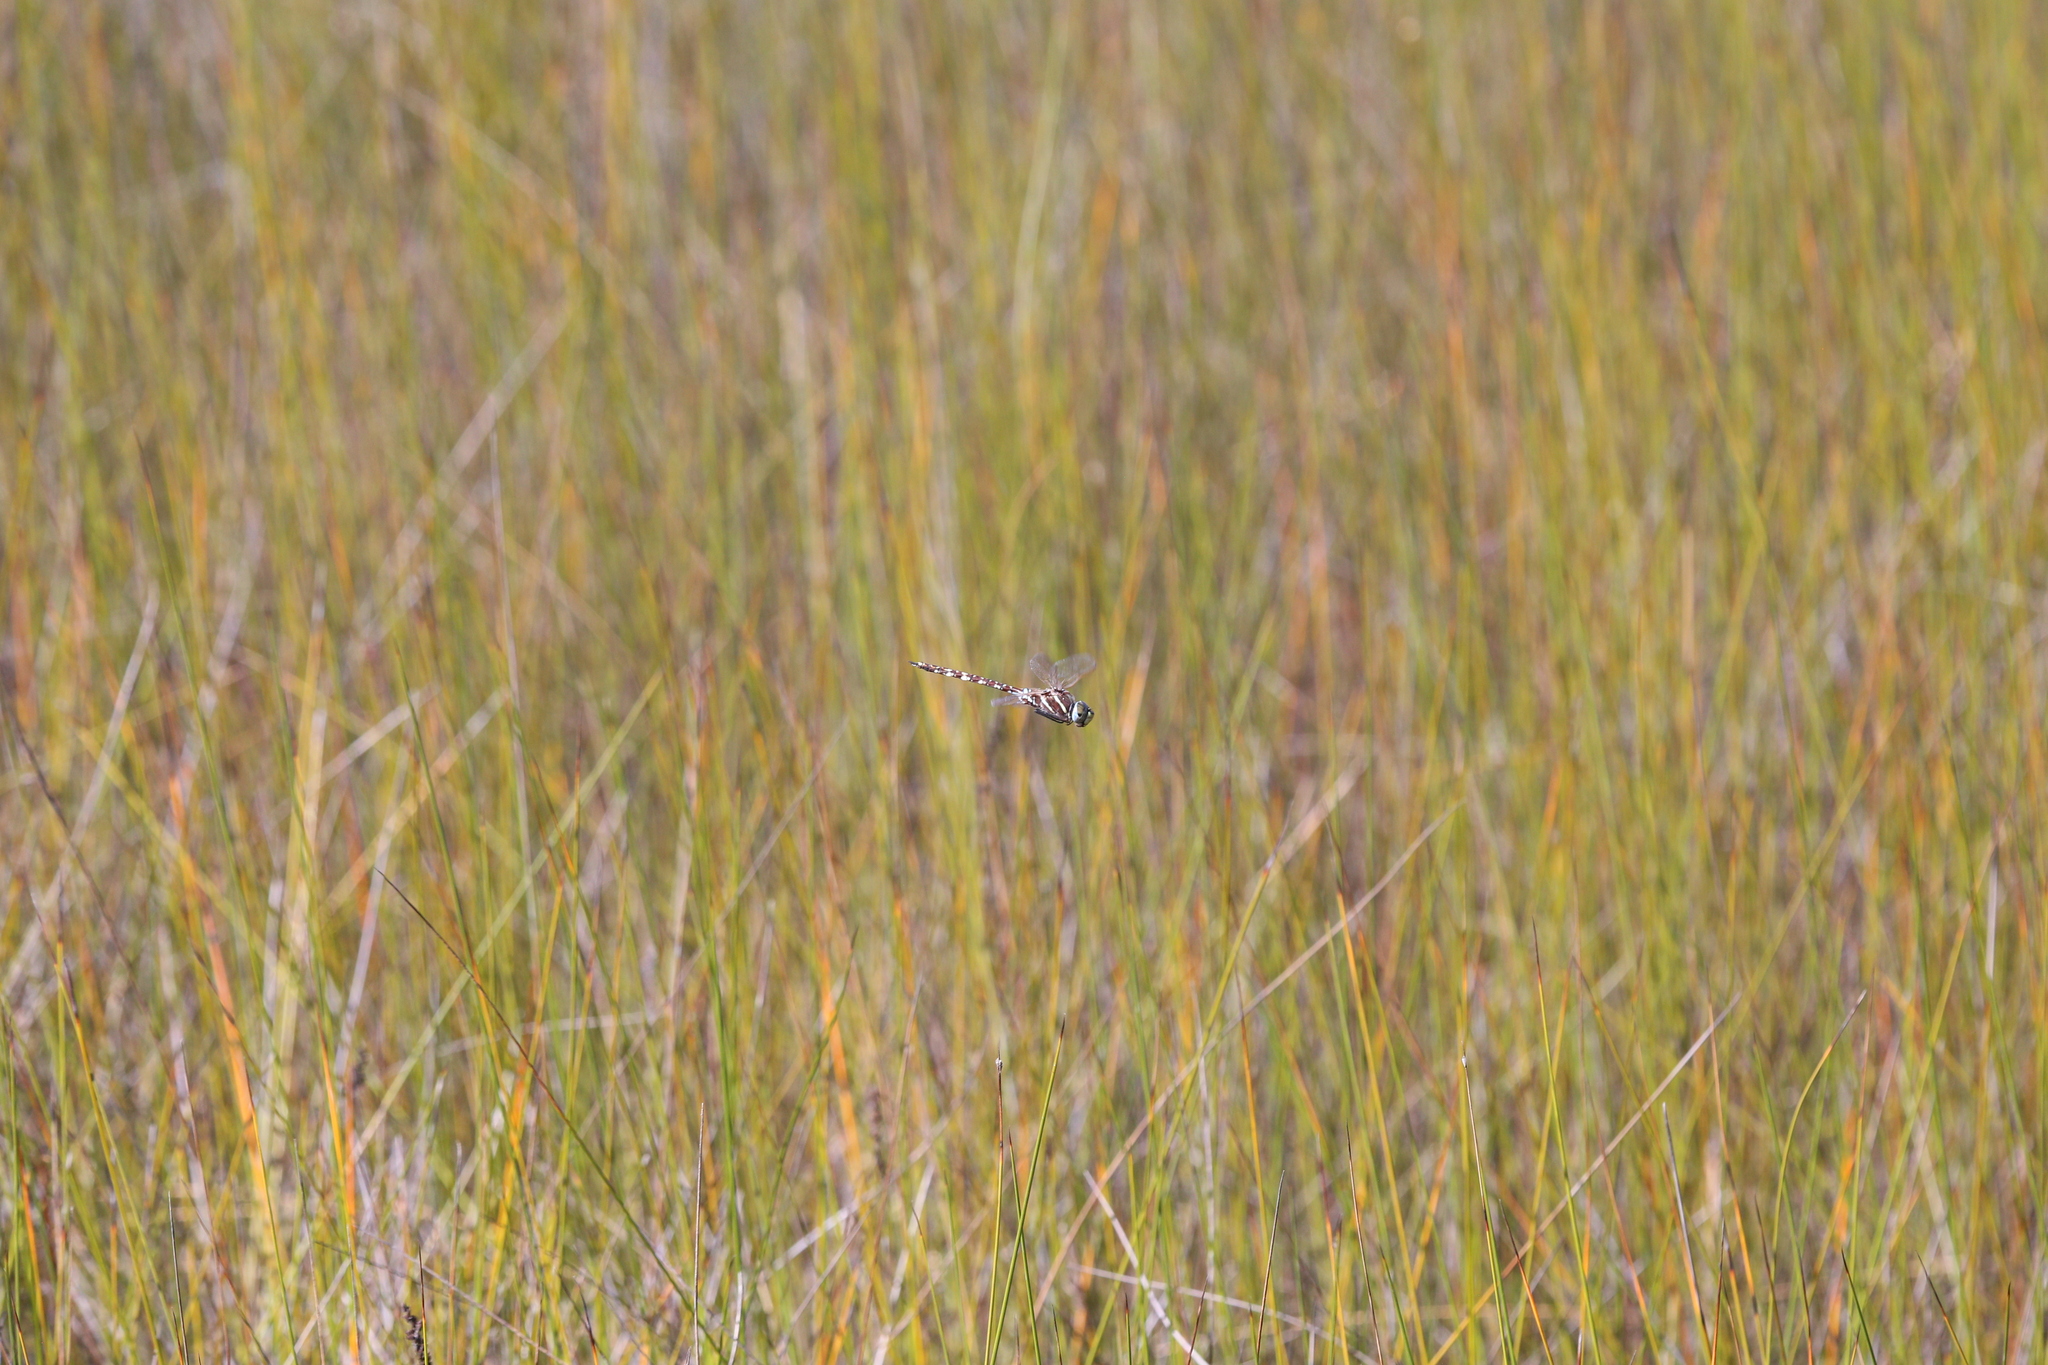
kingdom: Animalia
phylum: Arthropoda
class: Insecta
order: Odonata
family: Aeshnidae
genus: Aeshna
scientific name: Aeshna brevistyla
